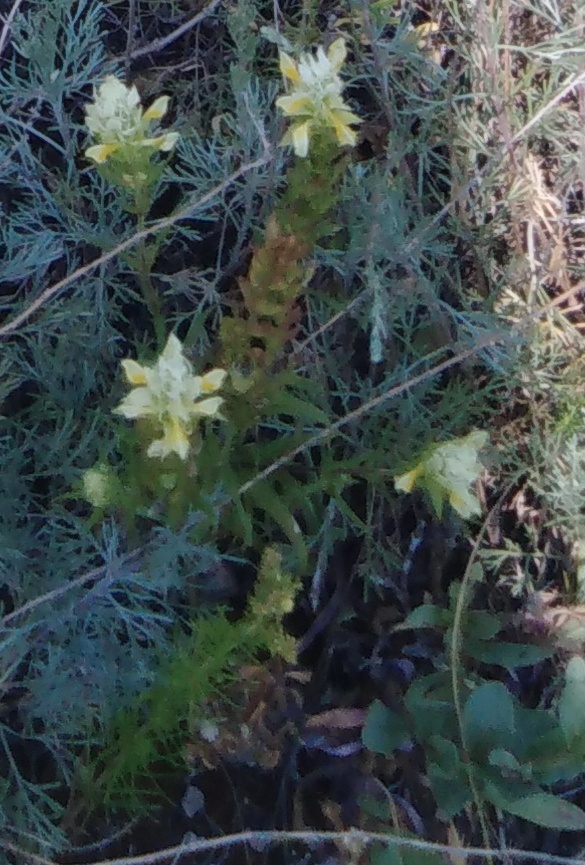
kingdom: Plantae
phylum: Tracheophyta
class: Magnoliopsida
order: Lamiales
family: Orobanchaceae
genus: Melampyrum
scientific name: Melampyrum arvense
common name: Field cow-wheat
